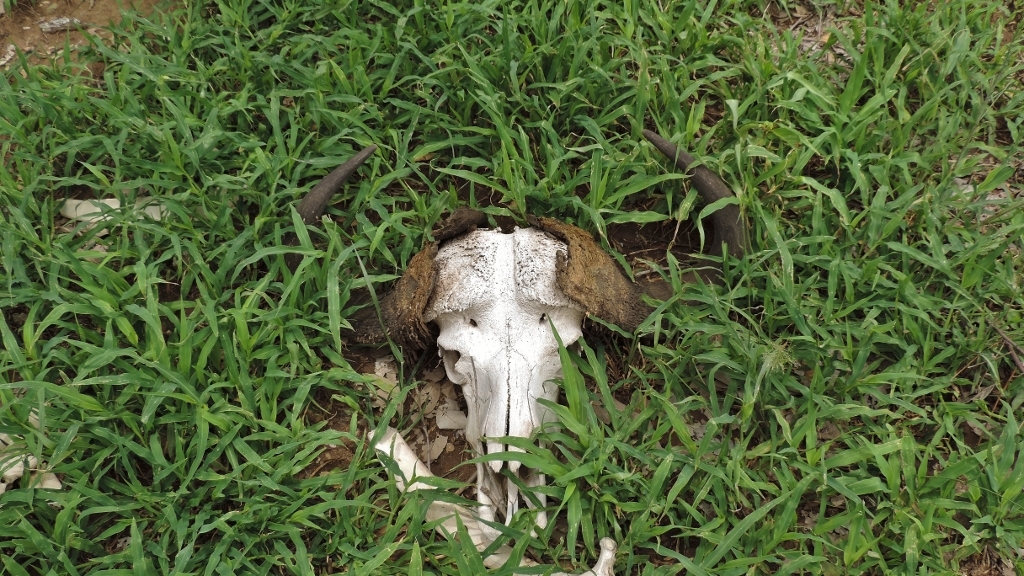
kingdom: Animalia
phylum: Chordata
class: Mammalia
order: Artiodactyla
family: Bovidae
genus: Syncerus
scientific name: Syncerus caffer
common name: African buffalo
